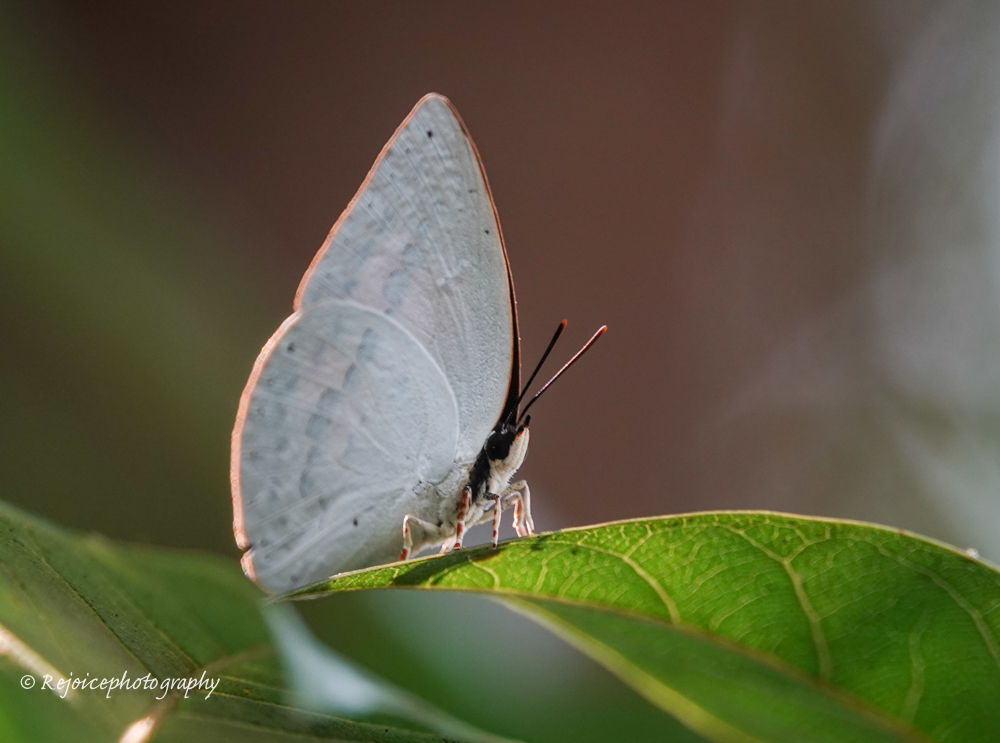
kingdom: Animalia
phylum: Arthropoda
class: Insecta
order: Lepidoptera
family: Lycaenidae
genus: Curetis
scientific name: Curetis saronis
